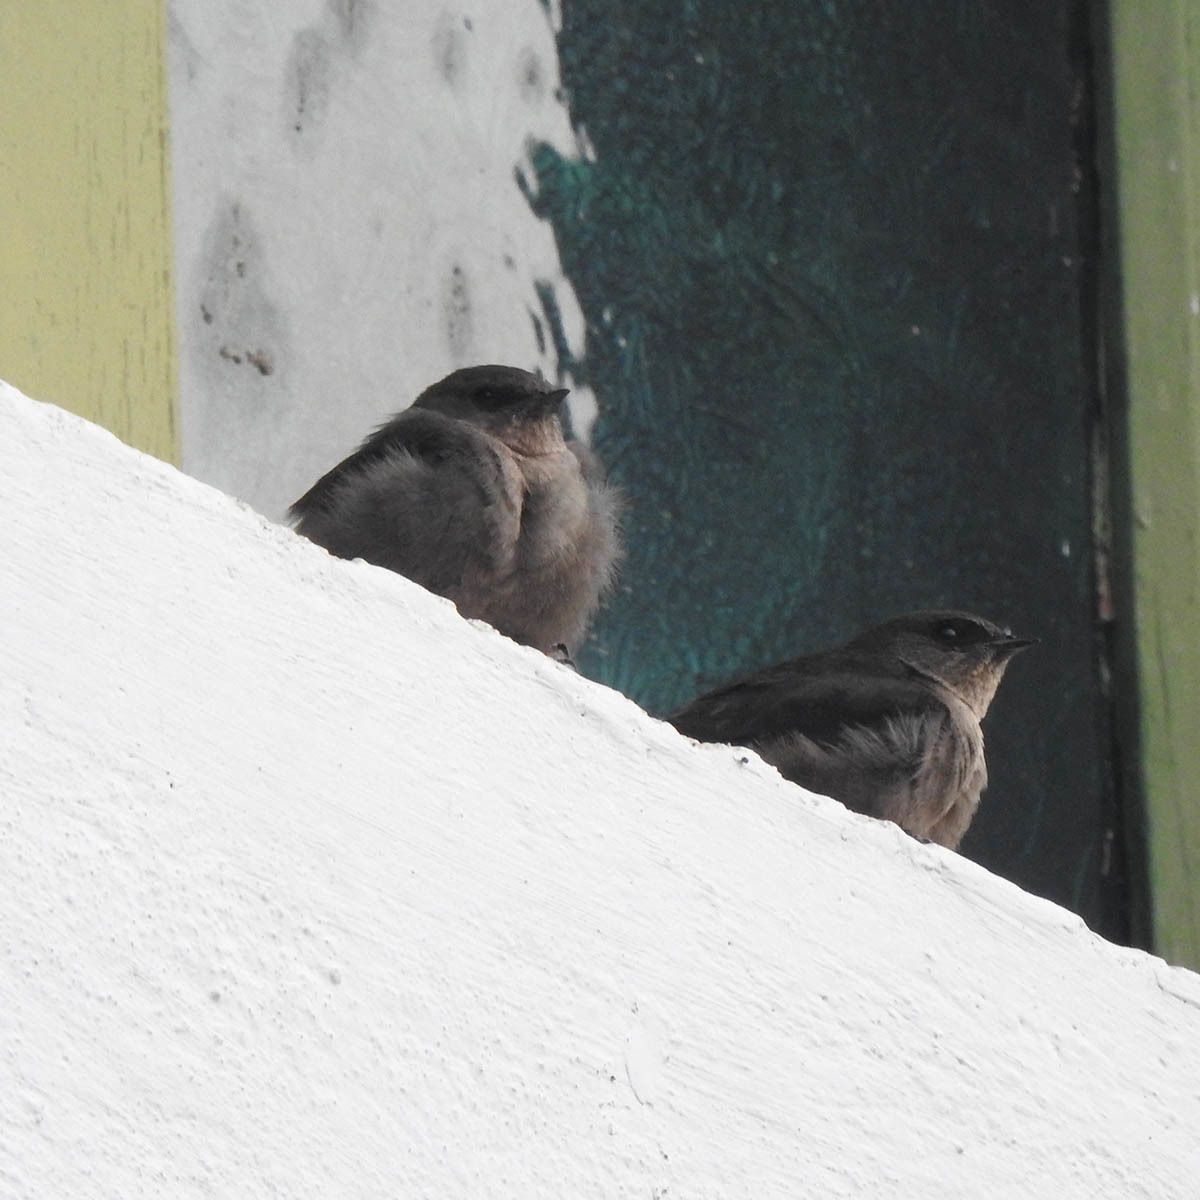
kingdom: Animalia
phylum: Chordata
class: Aves
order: Passeriformes
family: Hirundinidae
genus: Ptyonoprogne
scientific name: Ptyonoprogne concolor
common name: Dusky crag-martin
